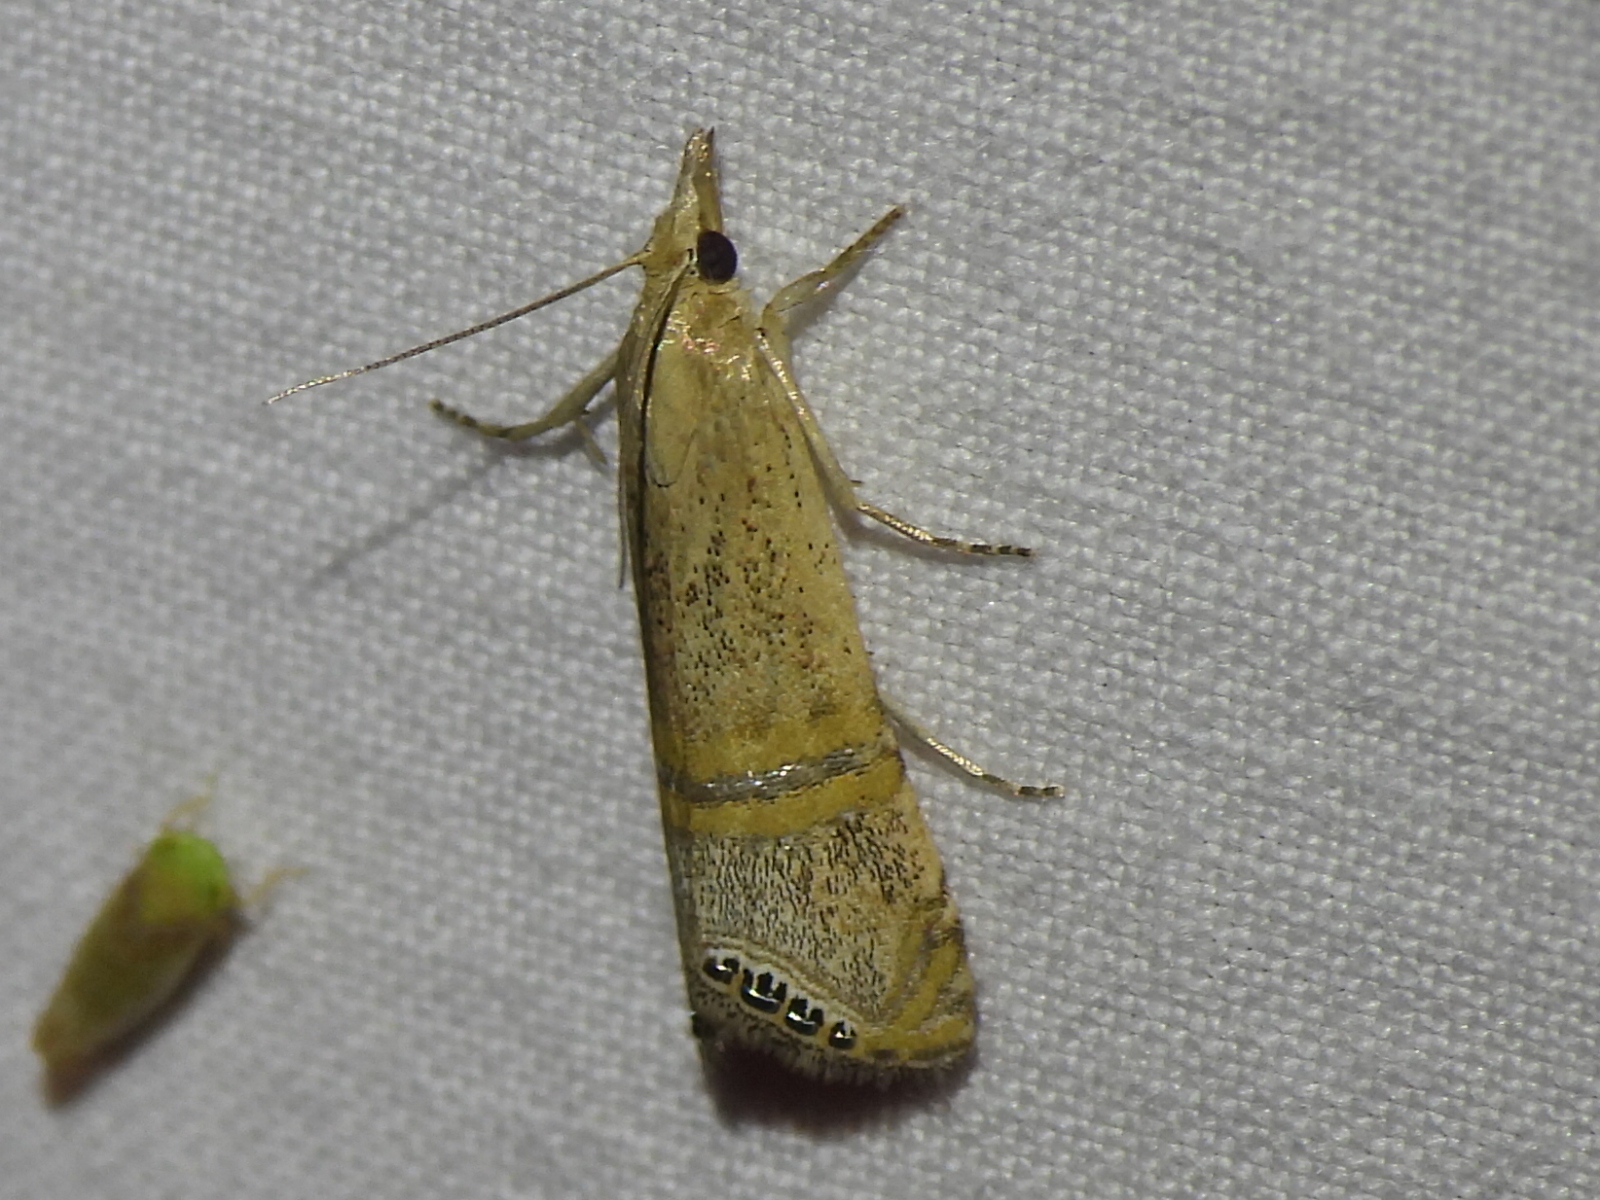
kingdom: Animalia
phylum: Arthropoda
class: Insecta
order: Lepidoptera
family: Crambidae
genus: Euchromius
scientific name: Euchromius ocellea
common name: Necklace veneer moth
